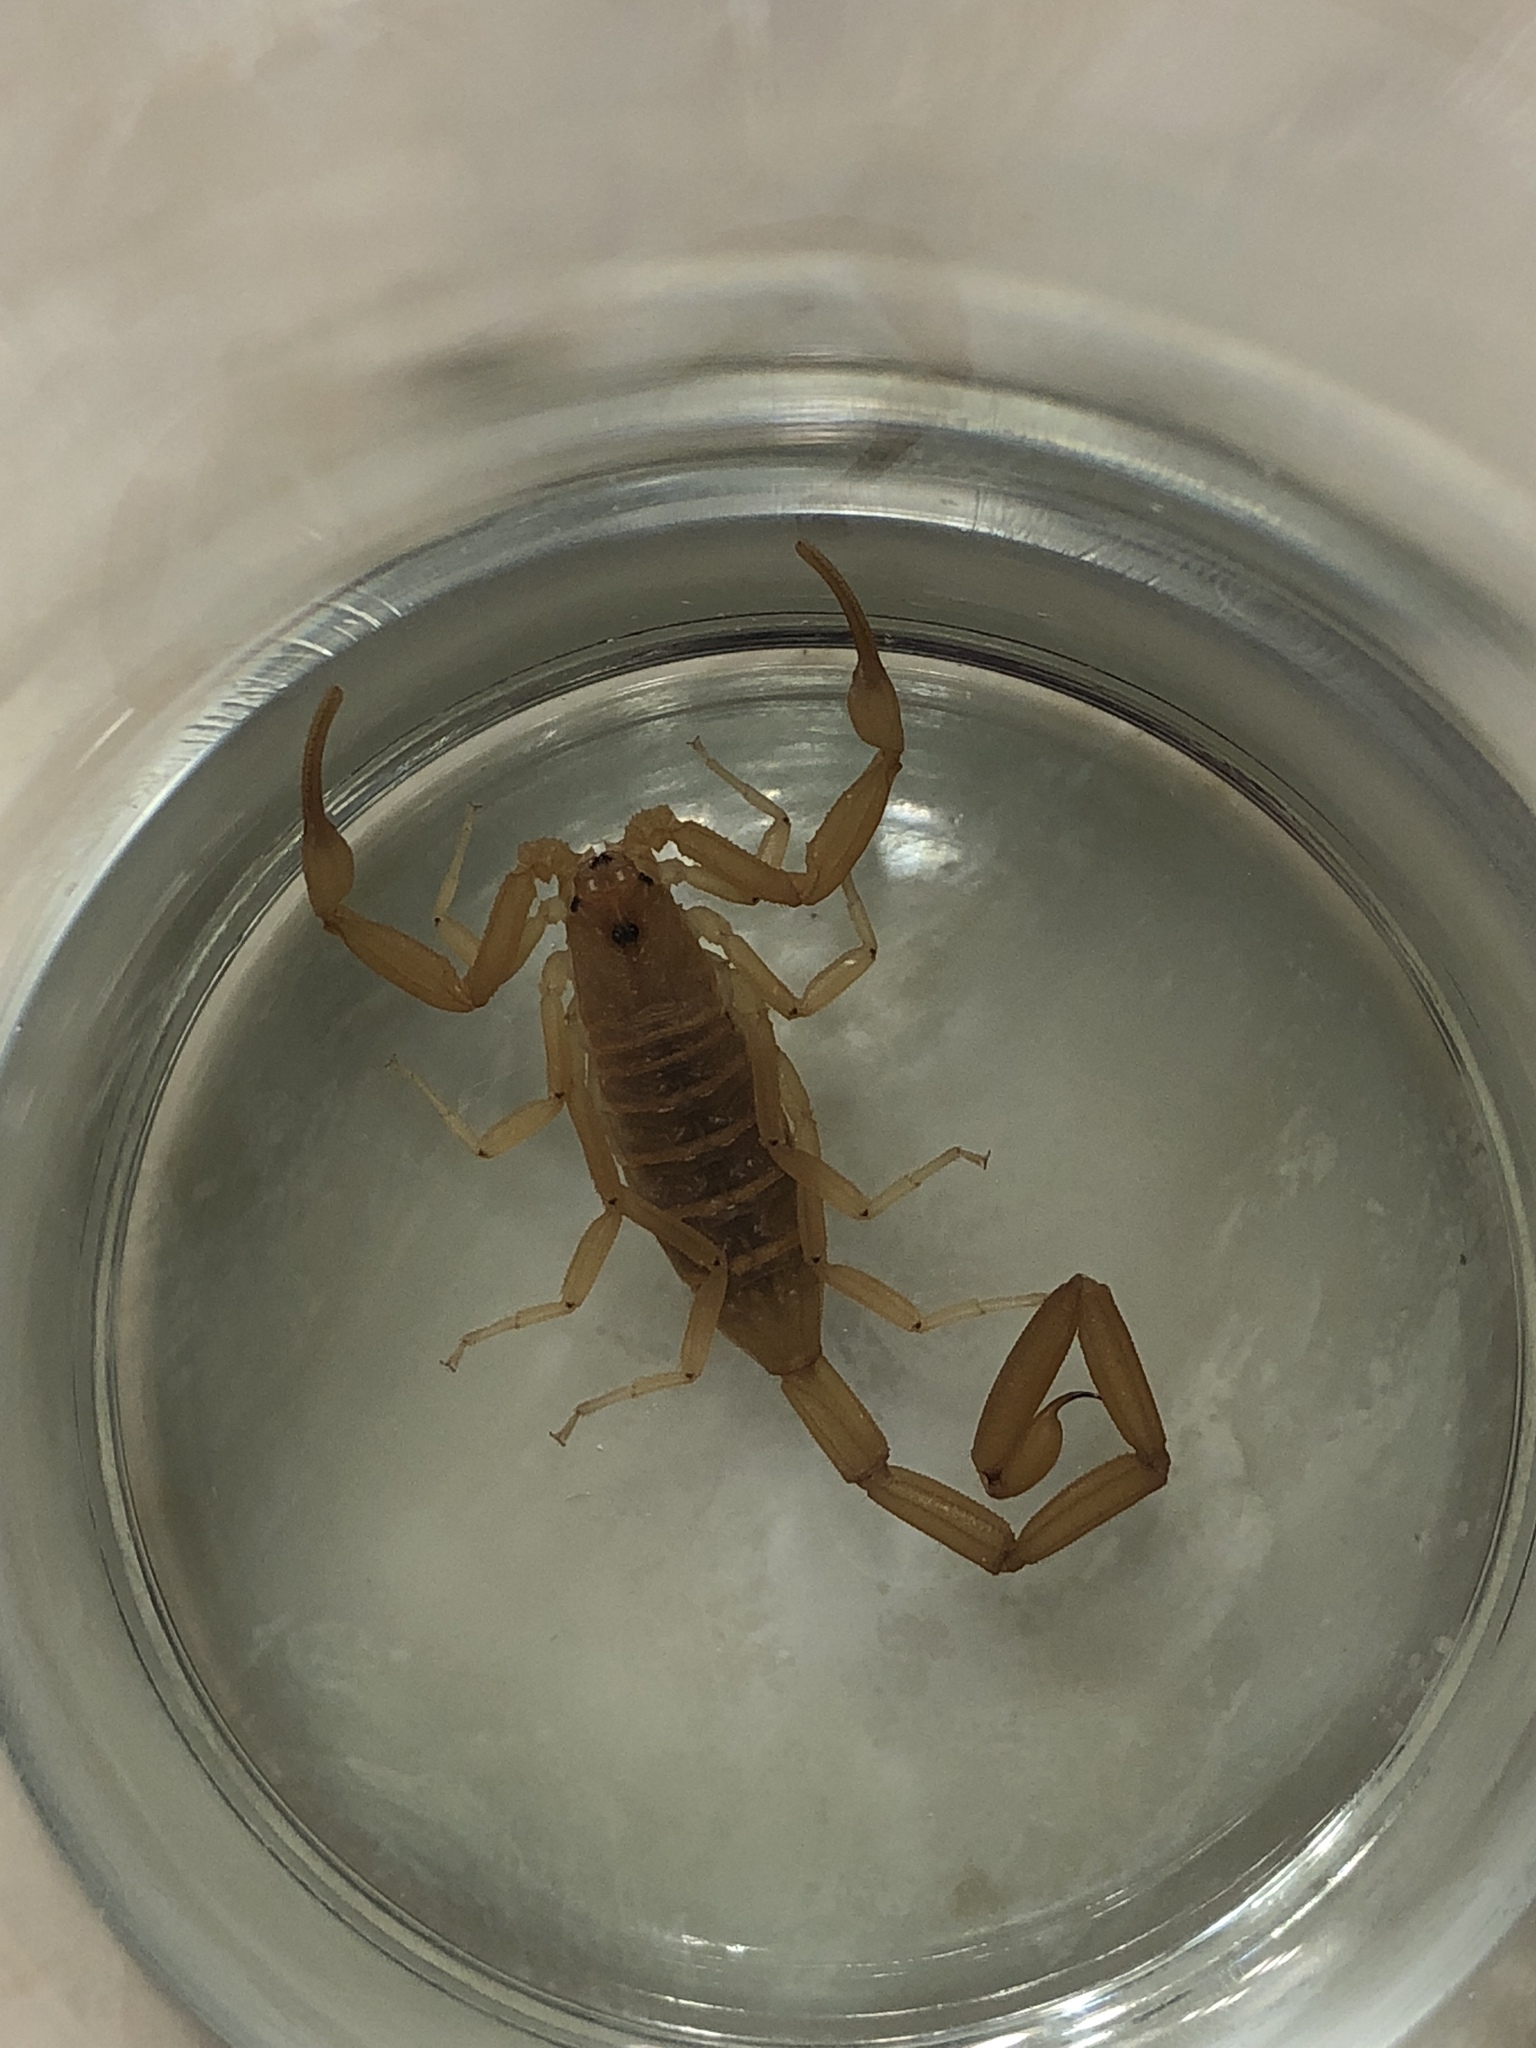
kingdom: Animalia
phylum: Arthropoda
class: Arachnida
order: Scorpiones
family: Buthidae
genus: Centruroides
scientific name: Centruroides sculpturatus
